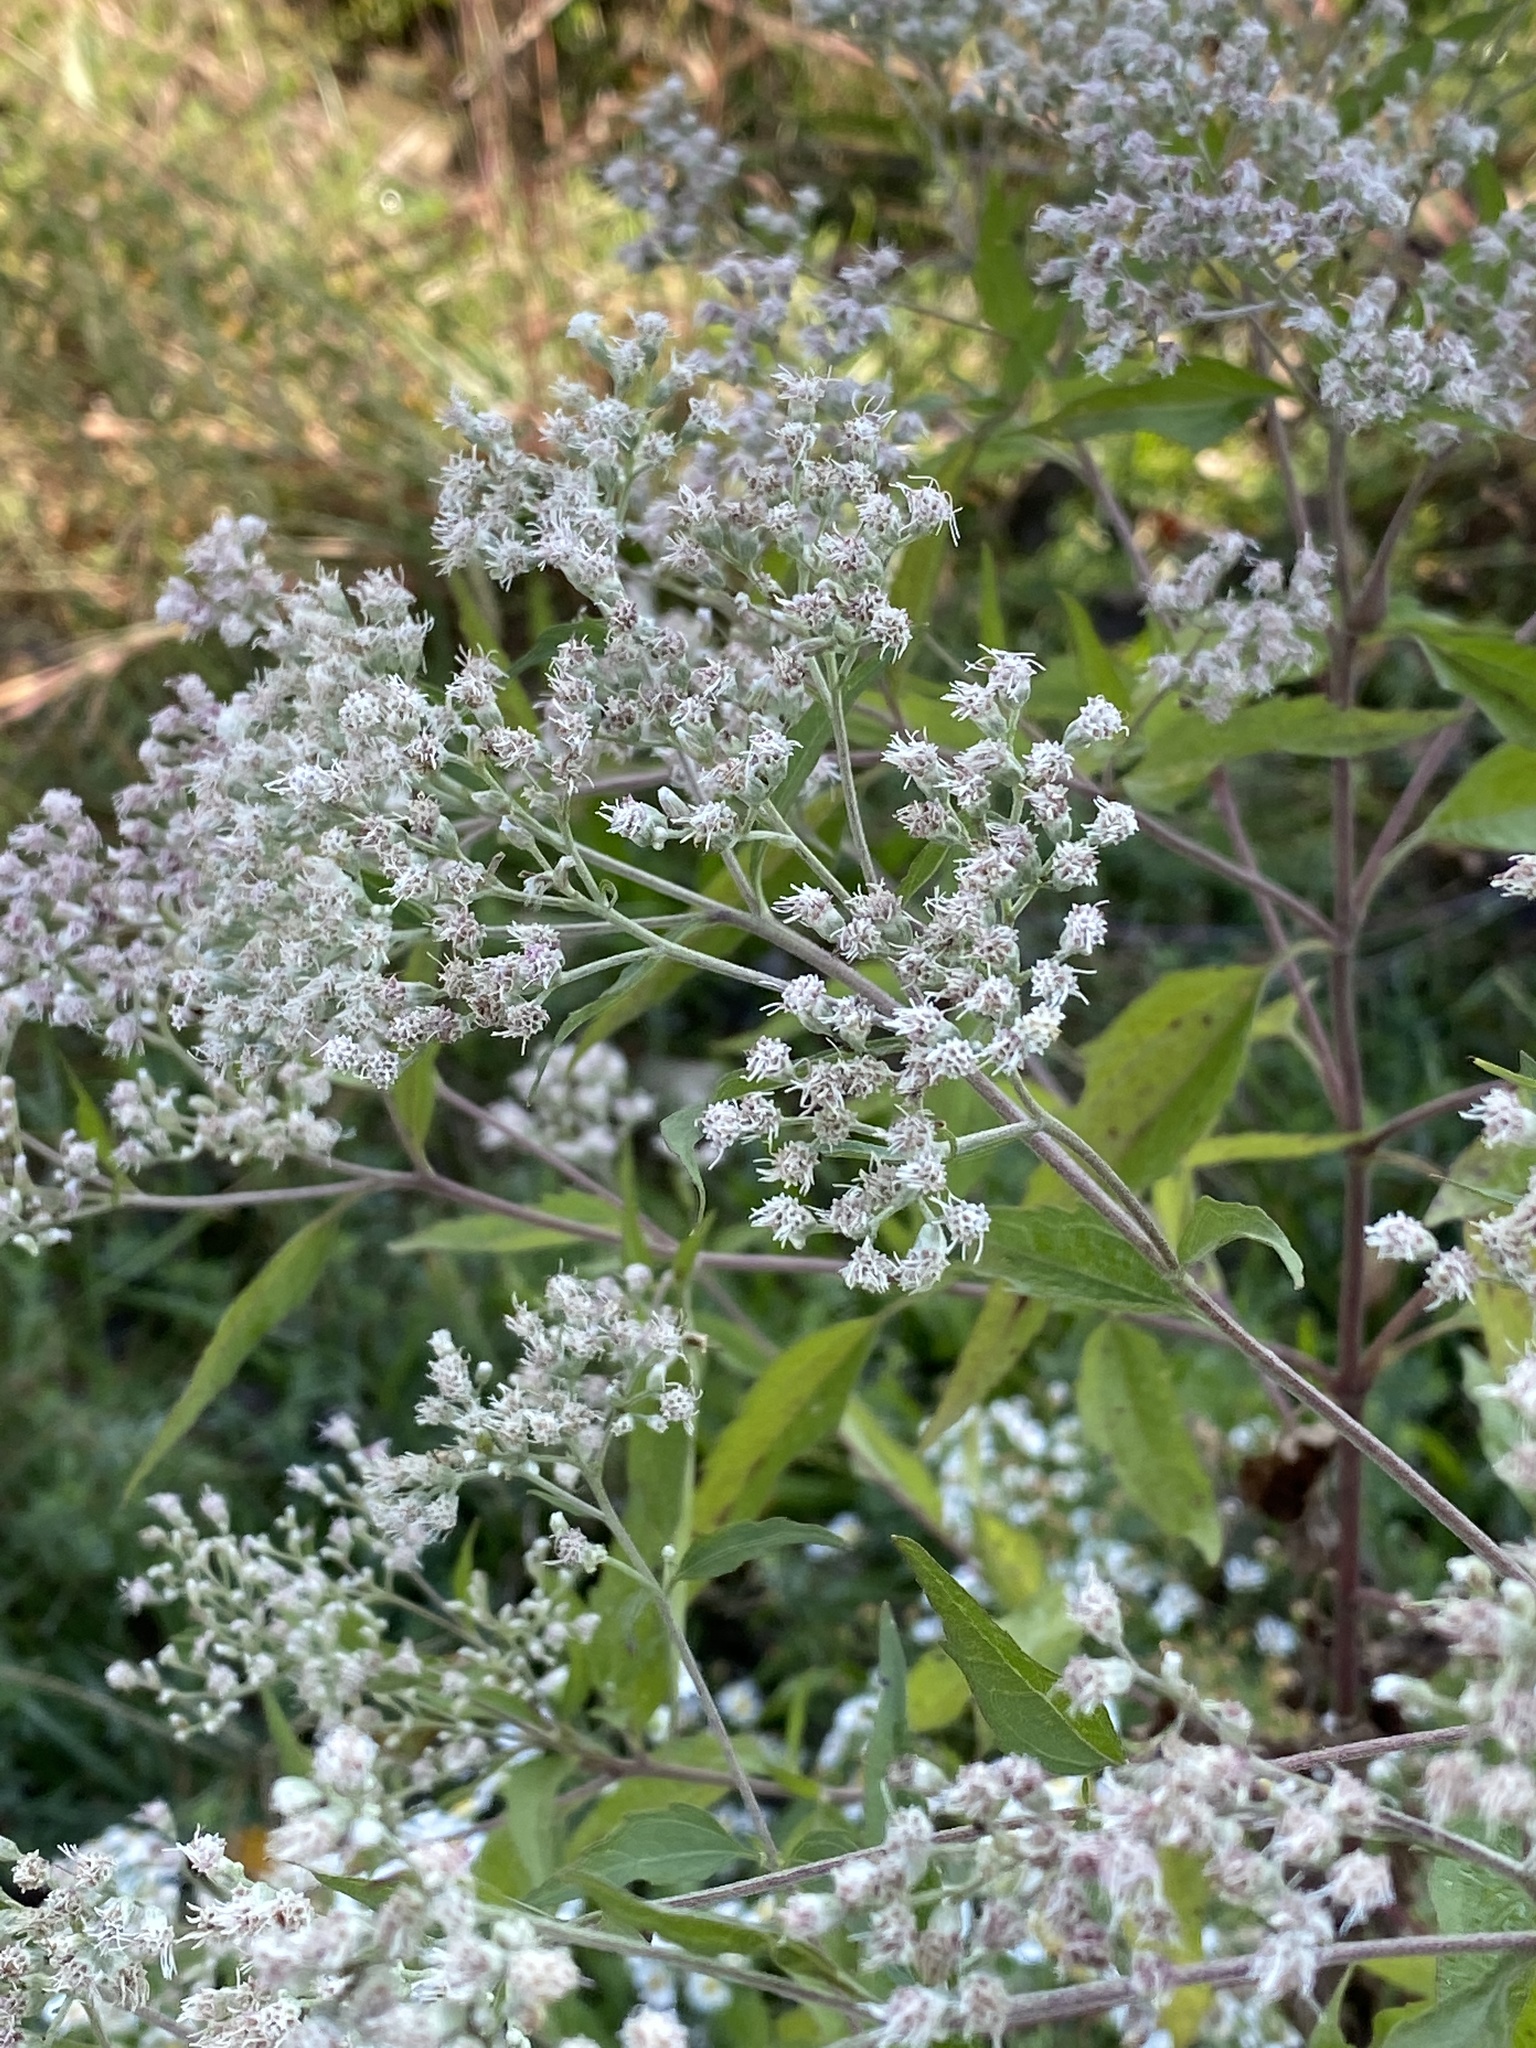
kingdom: Plantae
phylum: Tracheophyta
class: Magnoliopsida
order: Asterales
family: Asteraceae
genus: Eupatorium
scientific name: Eupatorium serotinum
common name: Late boneset
